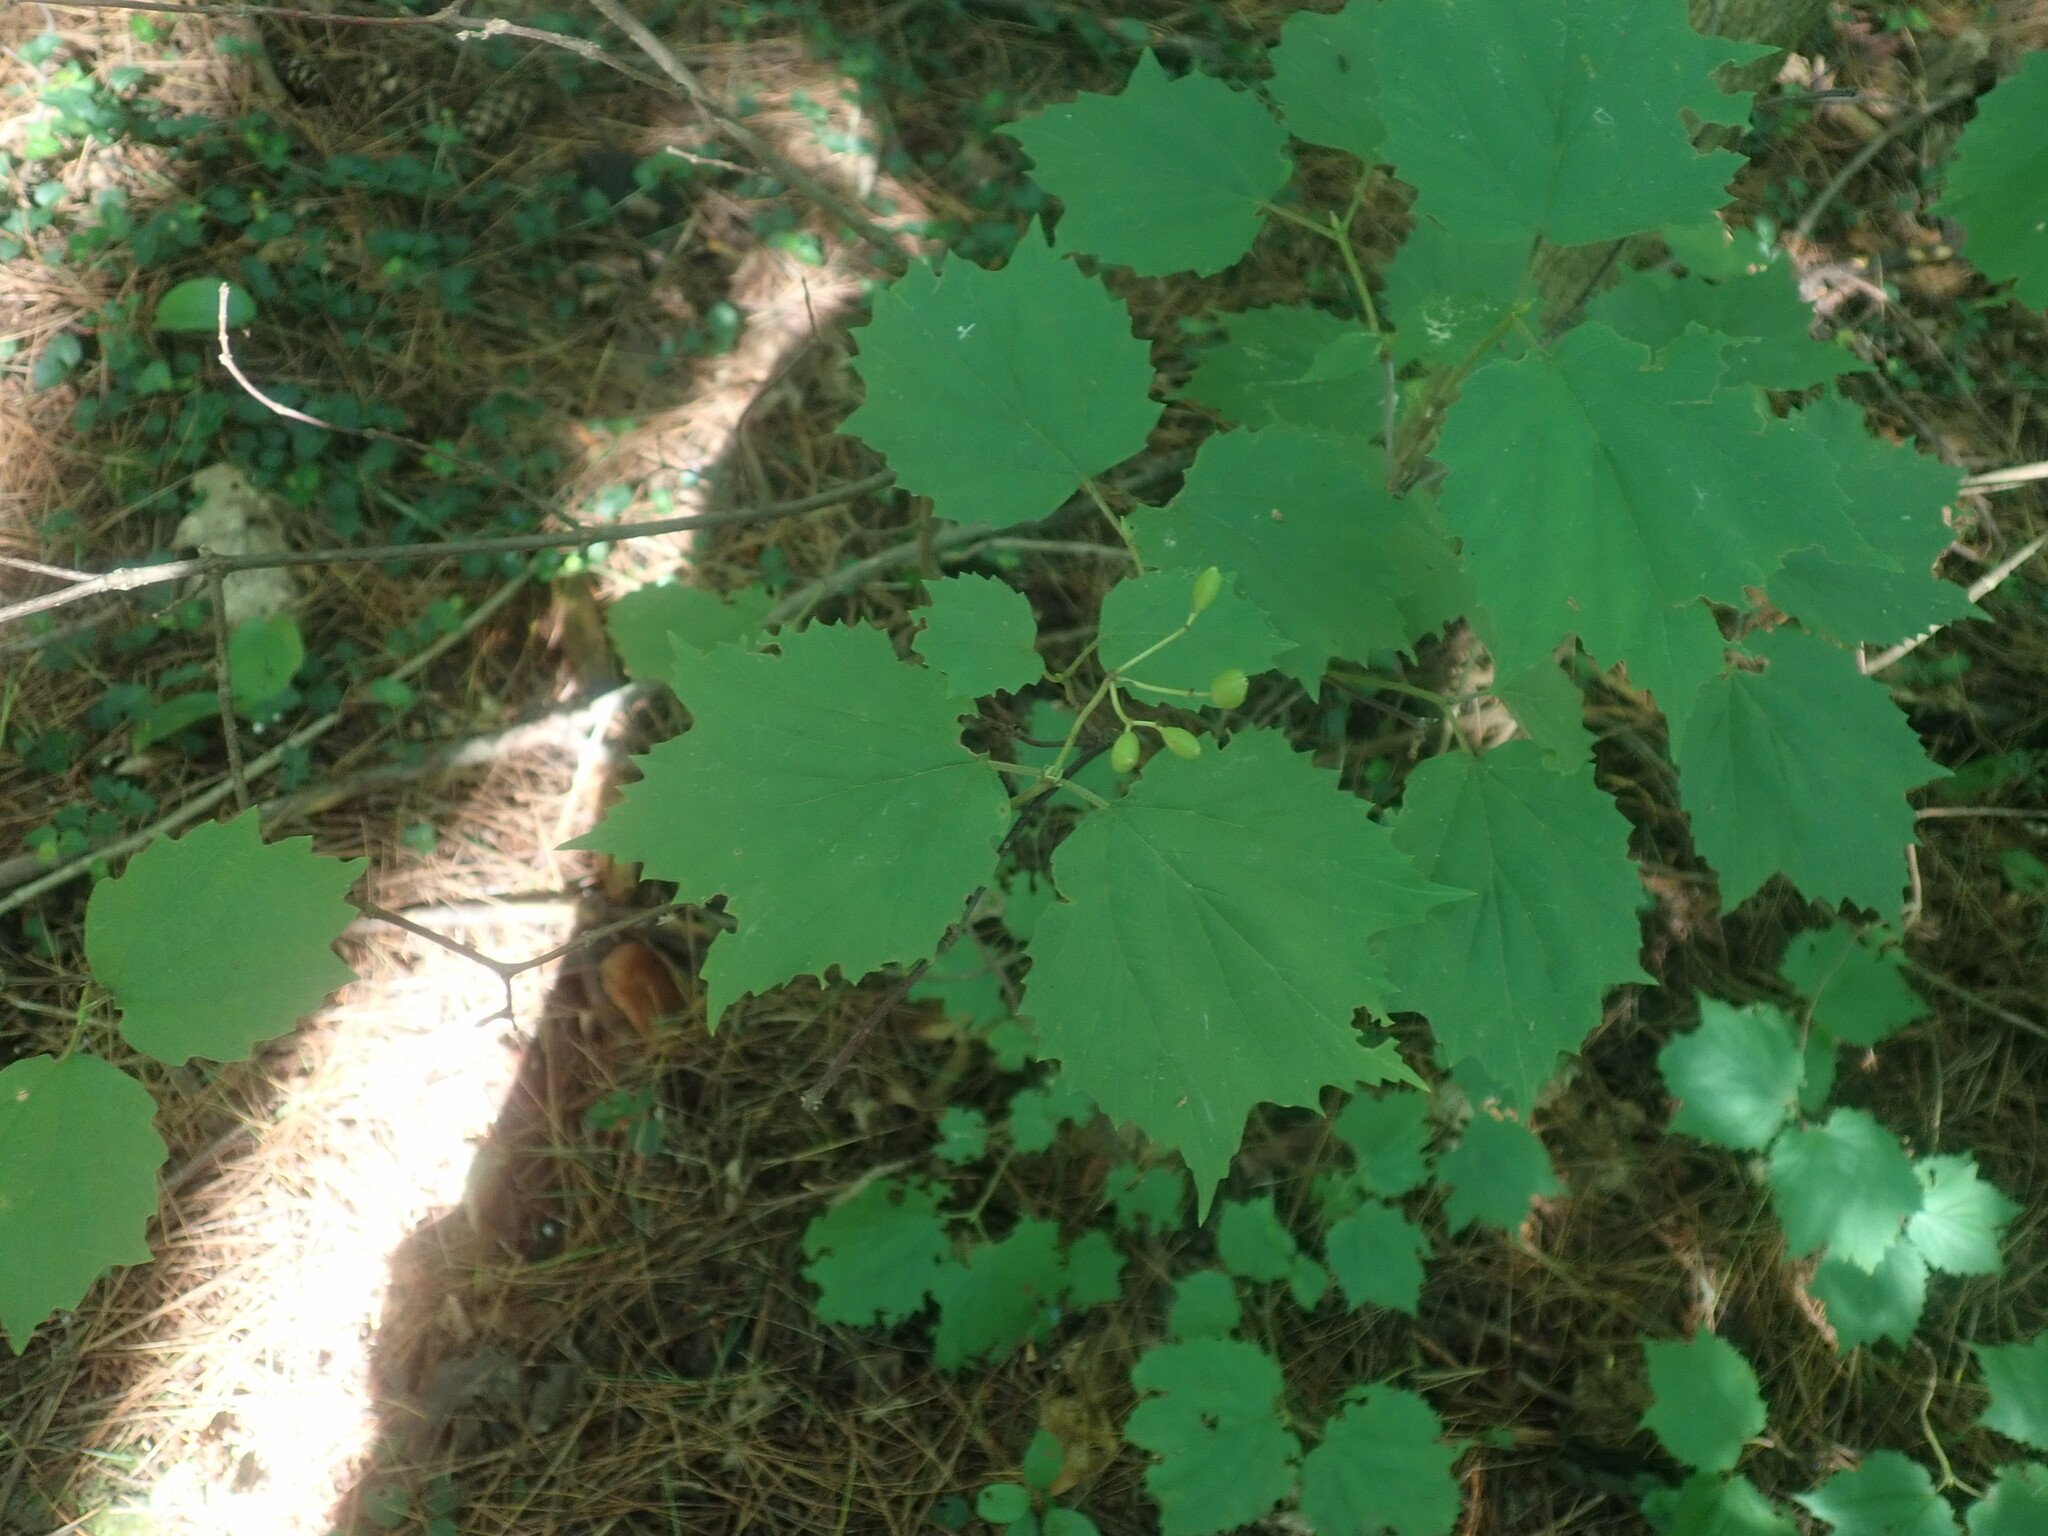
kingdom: Plantae
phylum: Tracheophyta
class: Magnoliopsida
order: Dipsacales
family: Viburnaceae
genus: Viburnum
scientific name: Viburnum acerifolium
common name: Dockmackie
